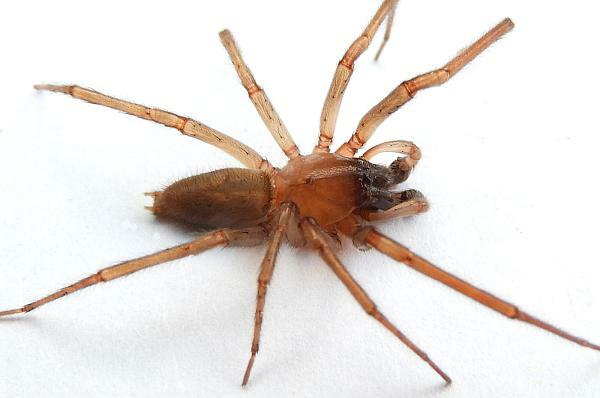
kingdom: Animalia
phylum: Arthropoda
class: Arachnida
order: Araneae
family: Cheiracanthiidae
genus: Strotarchus
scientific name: Strotarchus piscatorius
